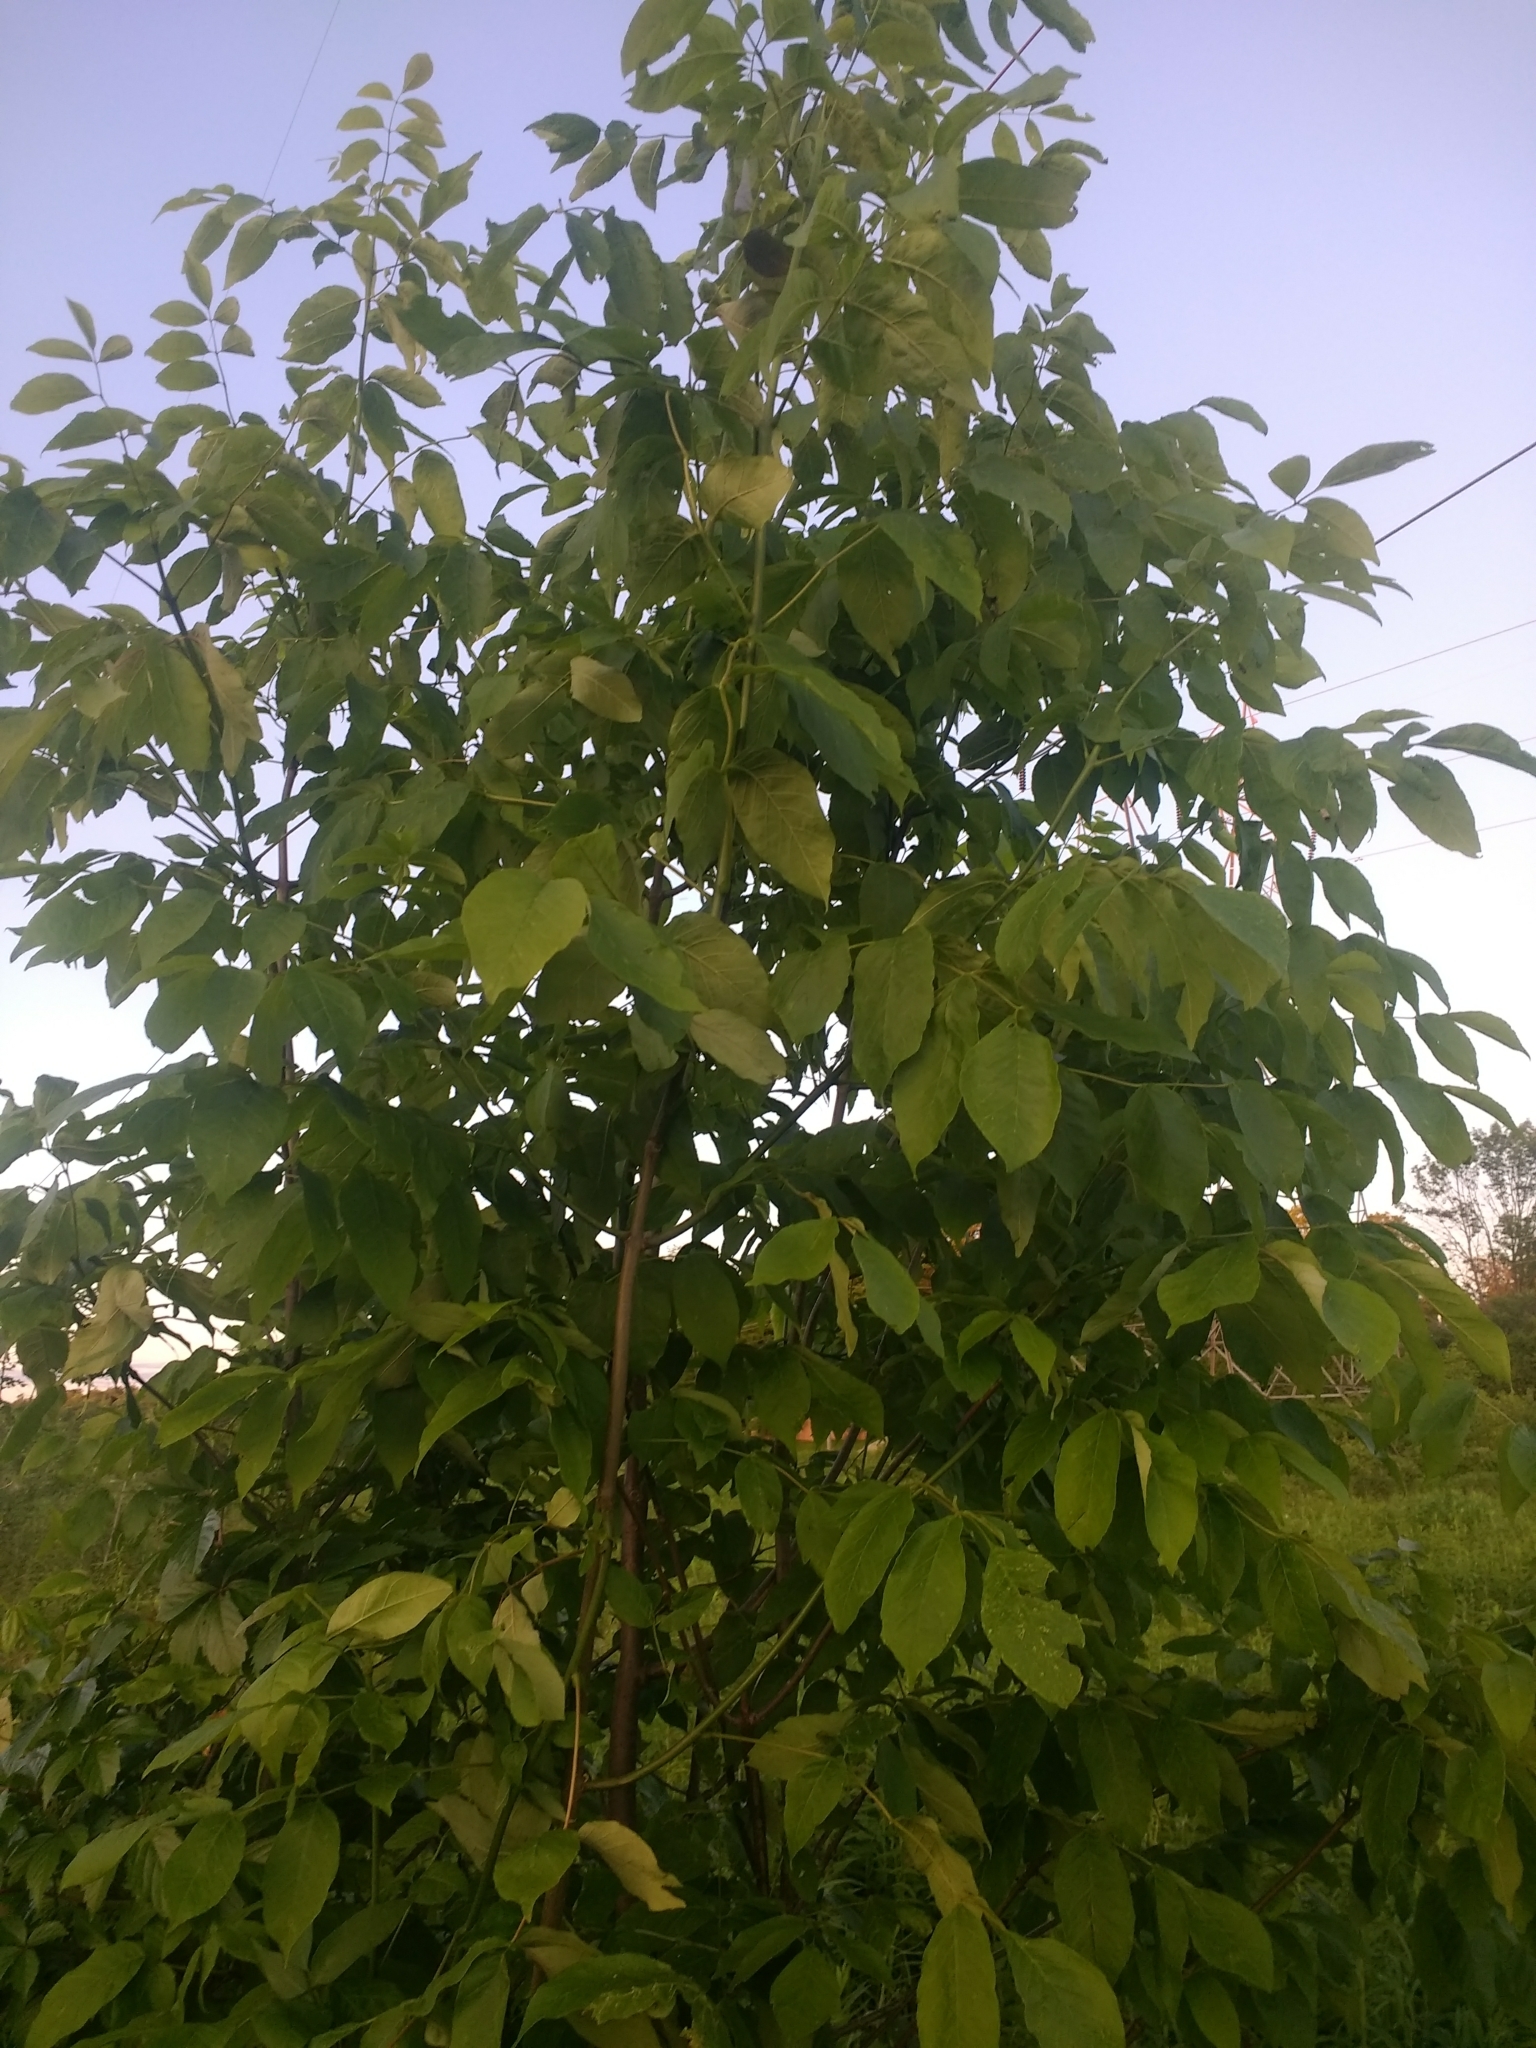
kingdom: Plantae
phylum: Tracheophyta
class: Magnoliopsida
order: Lamiales
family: Oleaceae
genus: Fraxinus
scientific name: Fraxinus americana
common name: White ash
